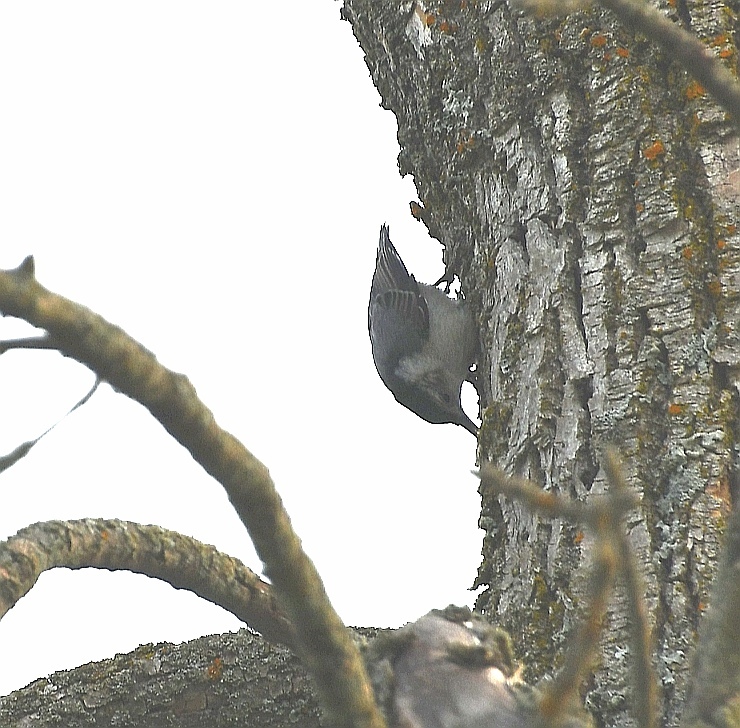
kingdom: Animalia
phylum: Chordata
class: Aves
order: Passeriformes
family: Sittidae
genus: Sitta
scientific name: Sitta carolinensis
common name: White-breasted nuthatch
